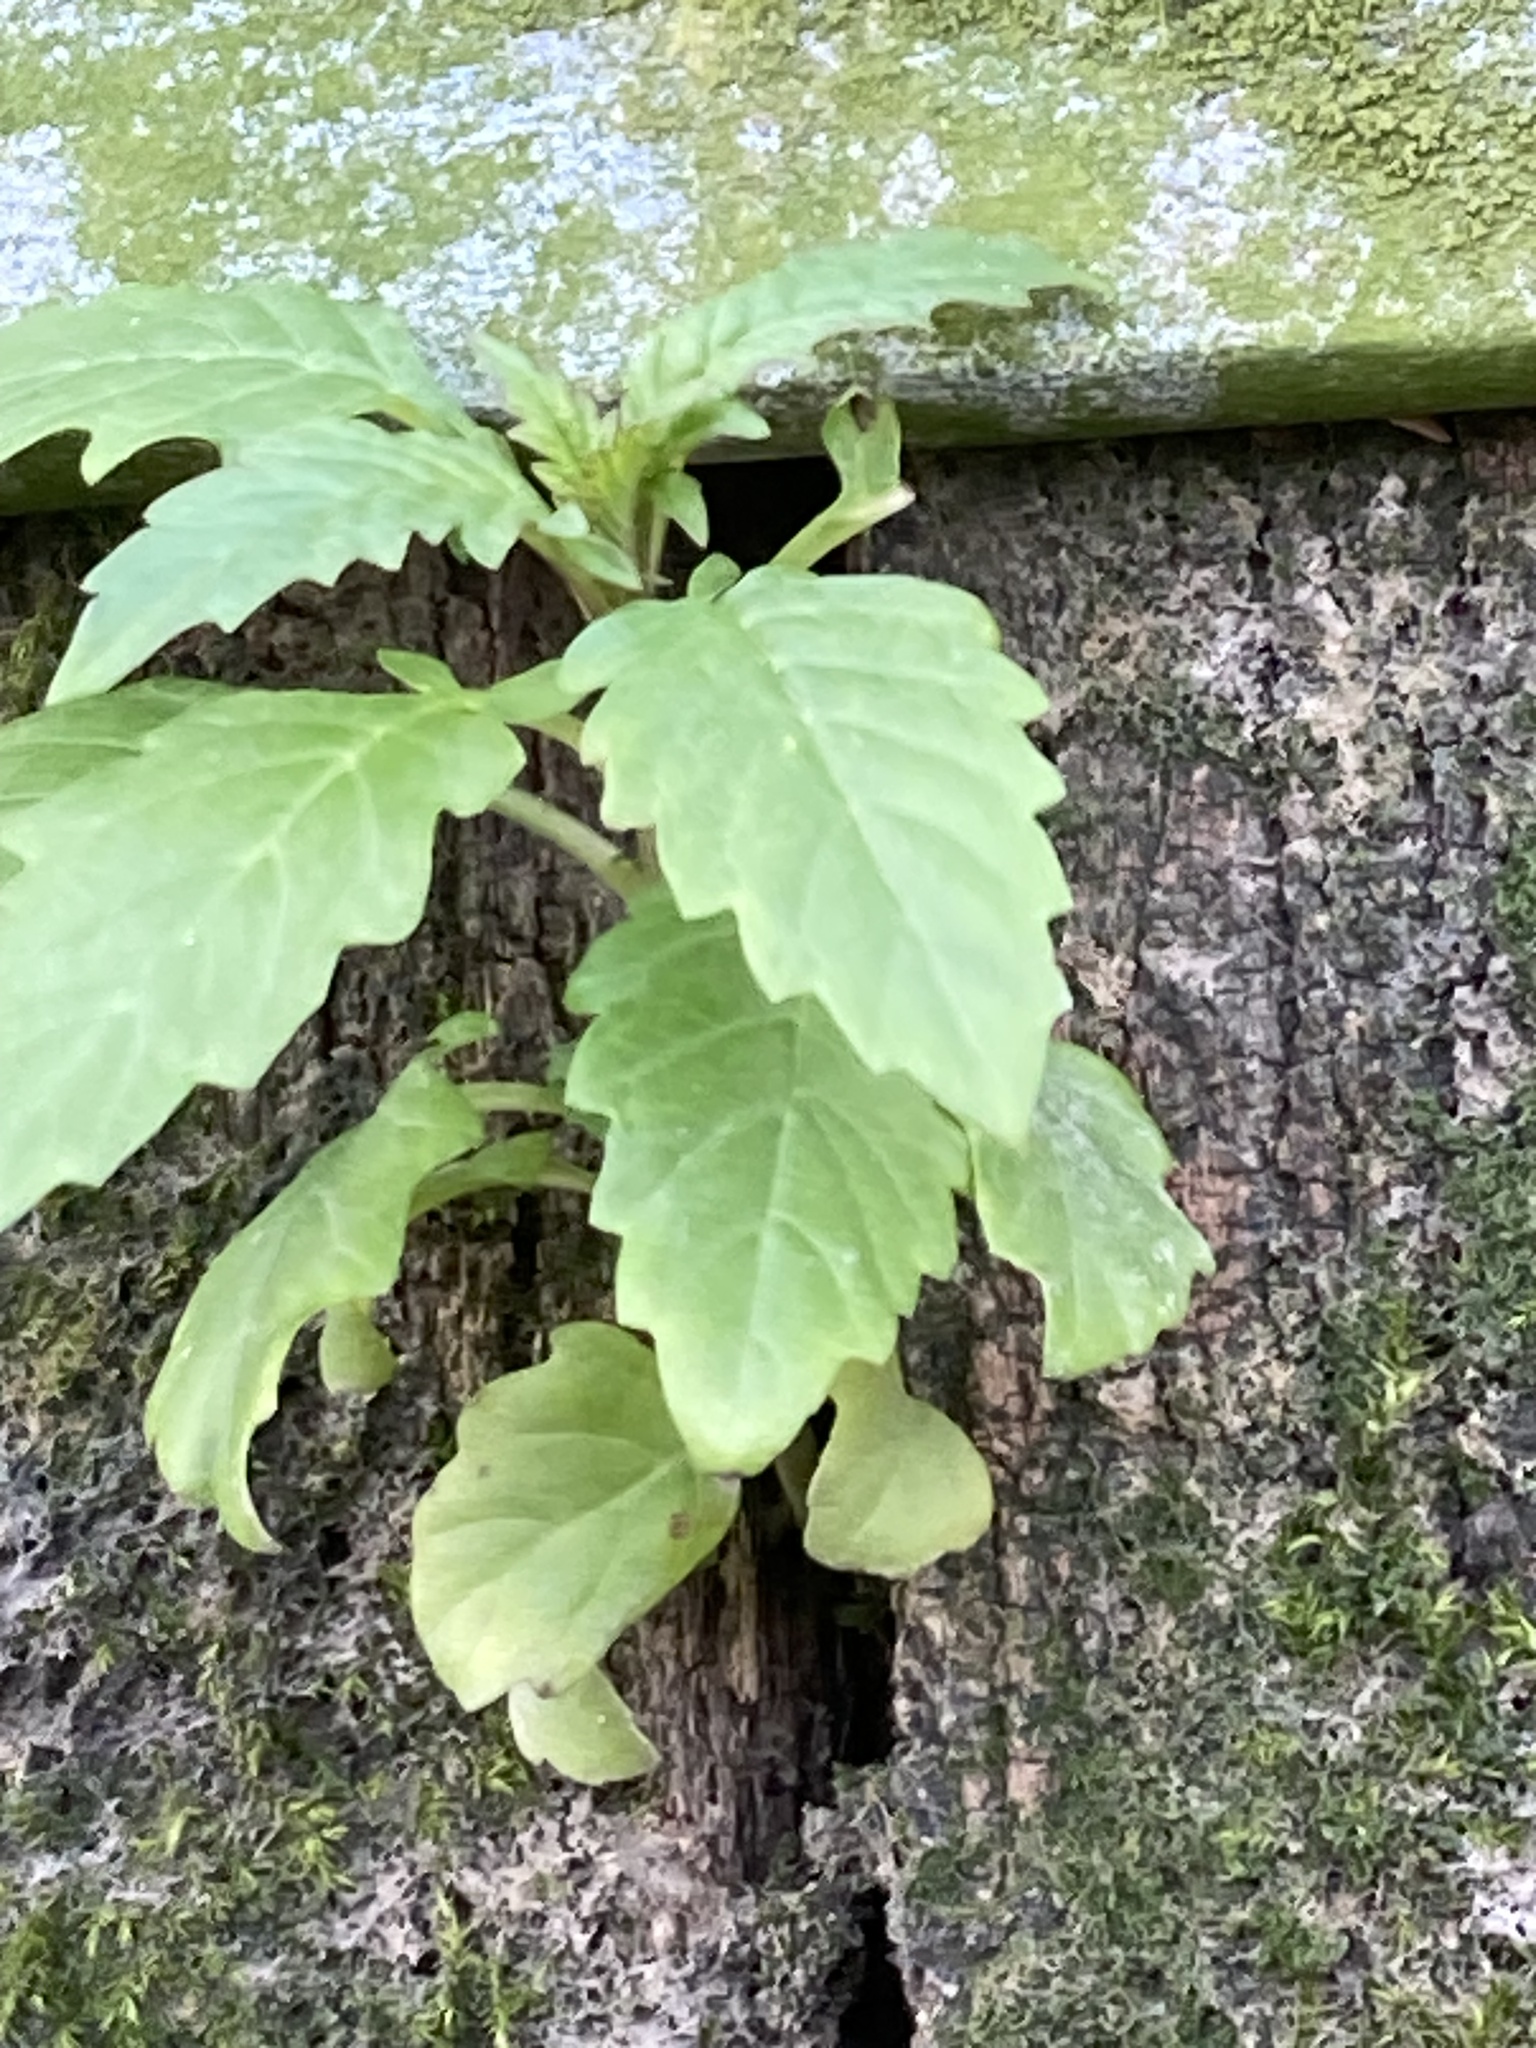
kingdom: Plantae
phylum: Tracheophyta
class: Magnoliopsida
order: Lamiales
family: Lamiaceae
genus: Lycopus
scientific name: Lycopus europaeus
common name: European bugleweed
